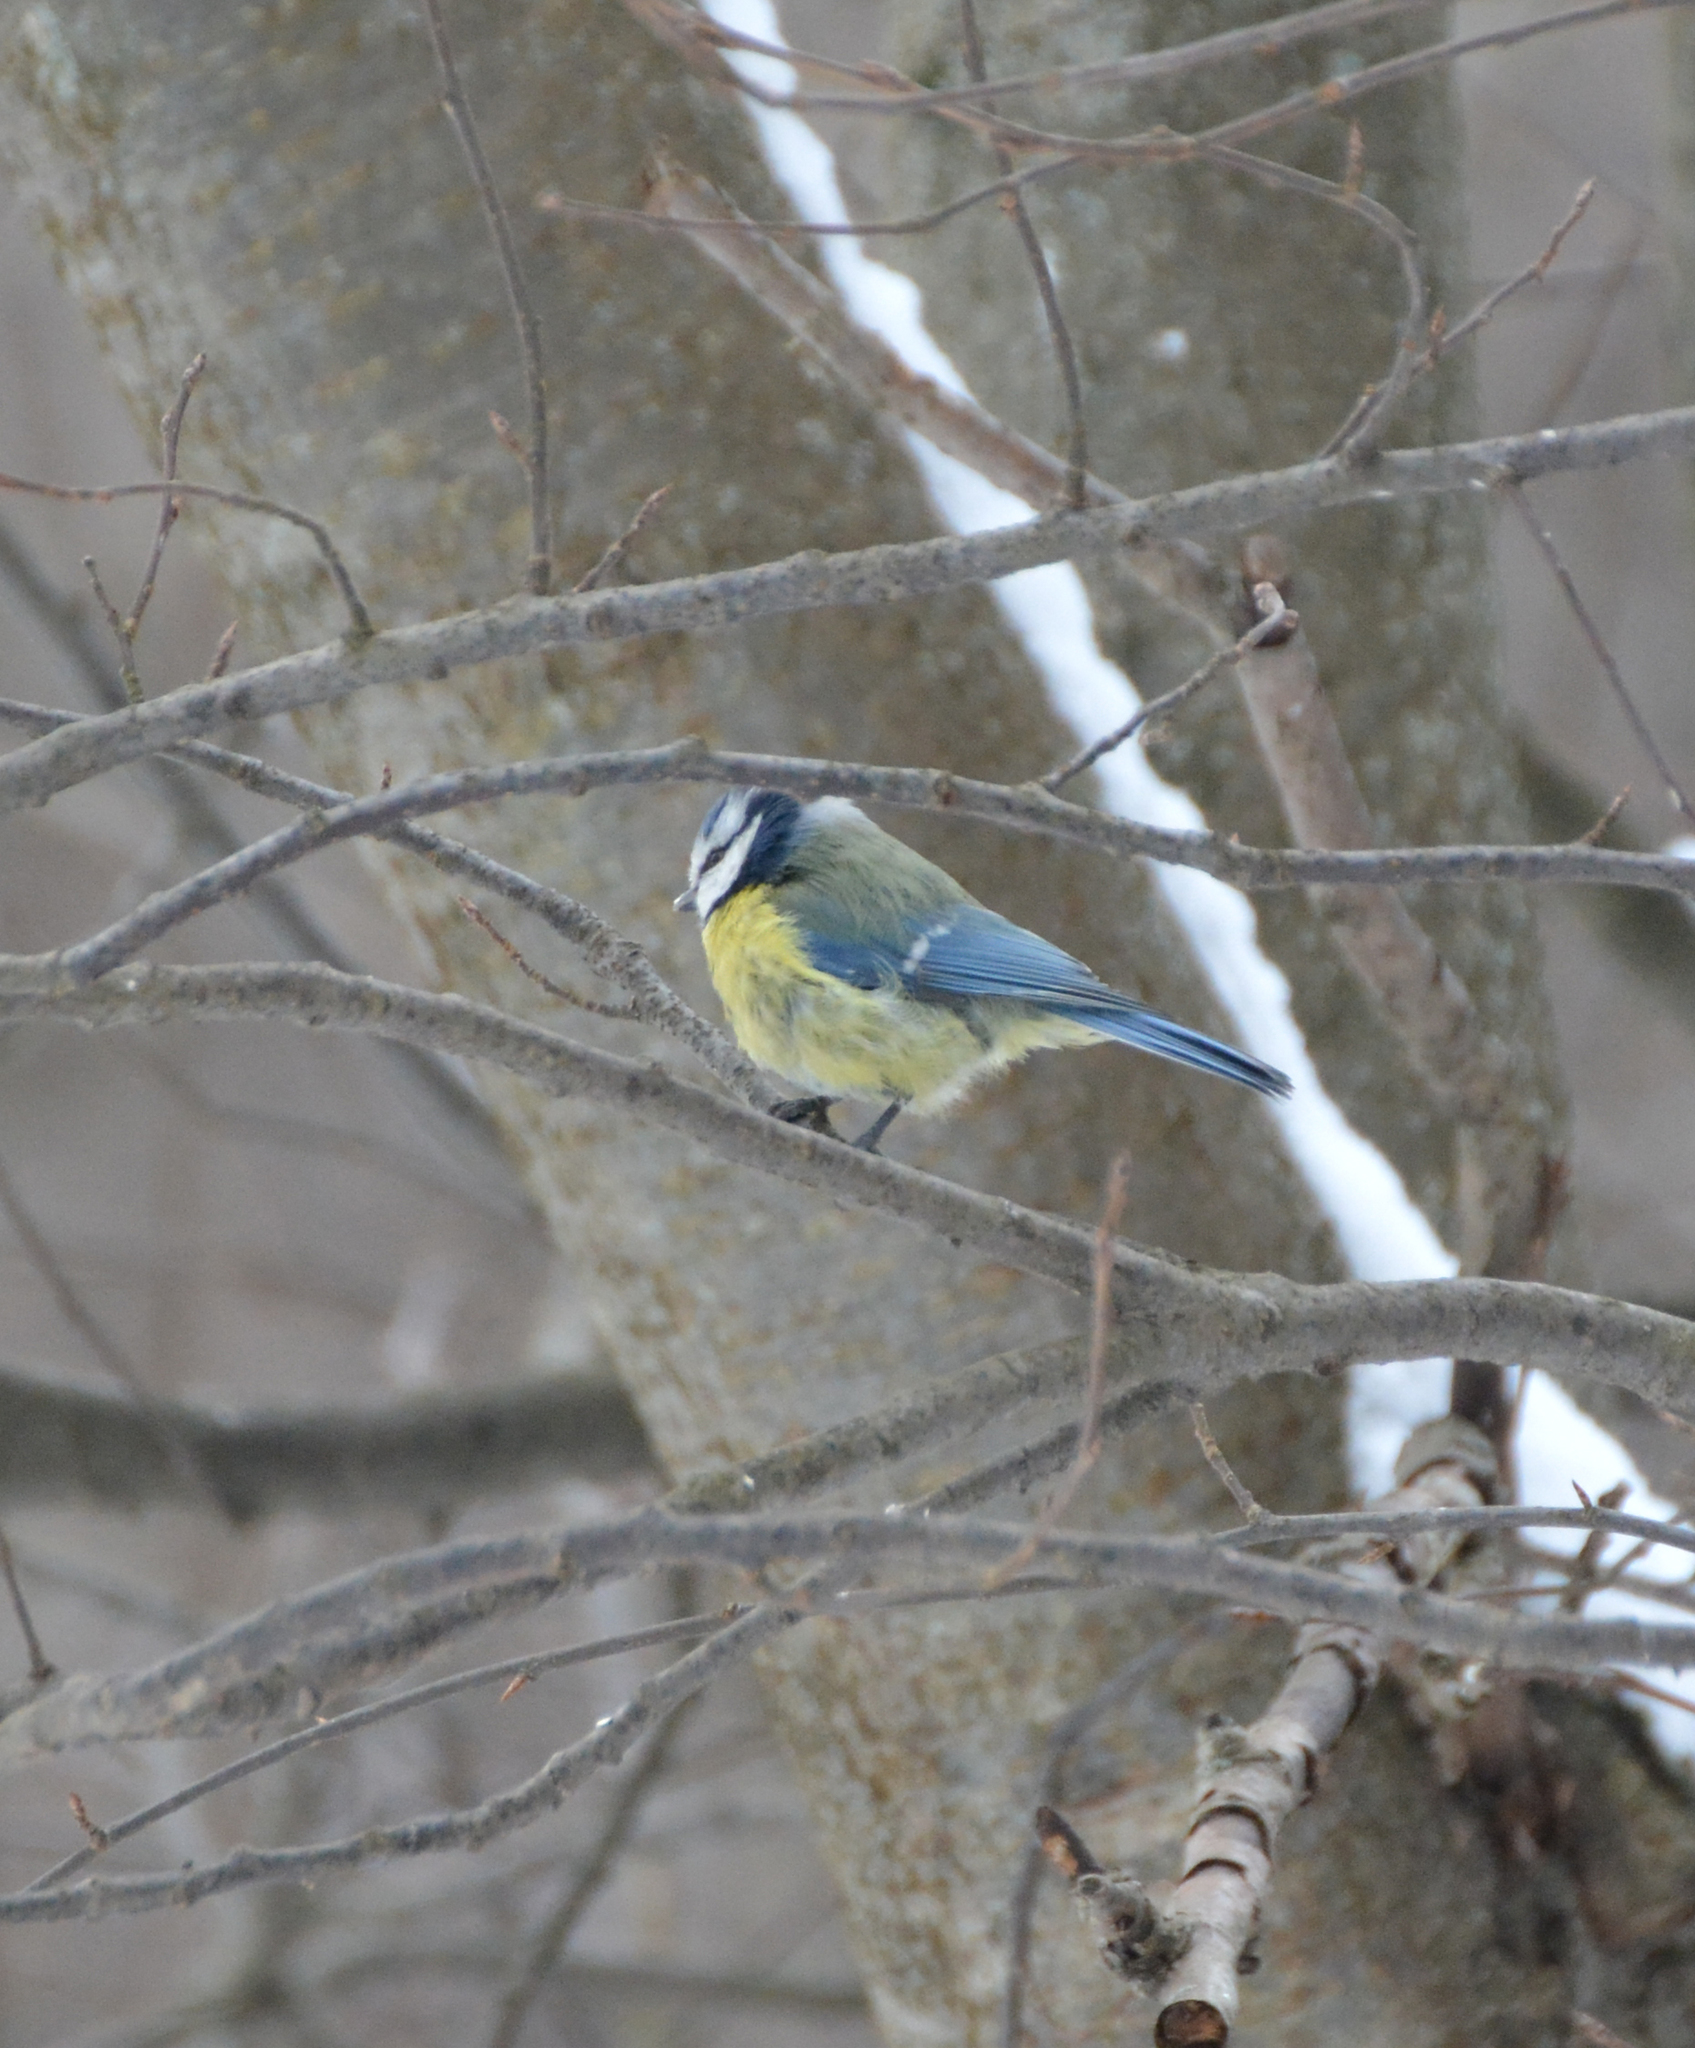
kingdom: Animalia
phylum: Chordata
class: Aves
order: Passeriformes
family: Paridae
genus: Cyanistes
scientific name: Cyanistes caeruleus
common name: Eurasian blue tit
